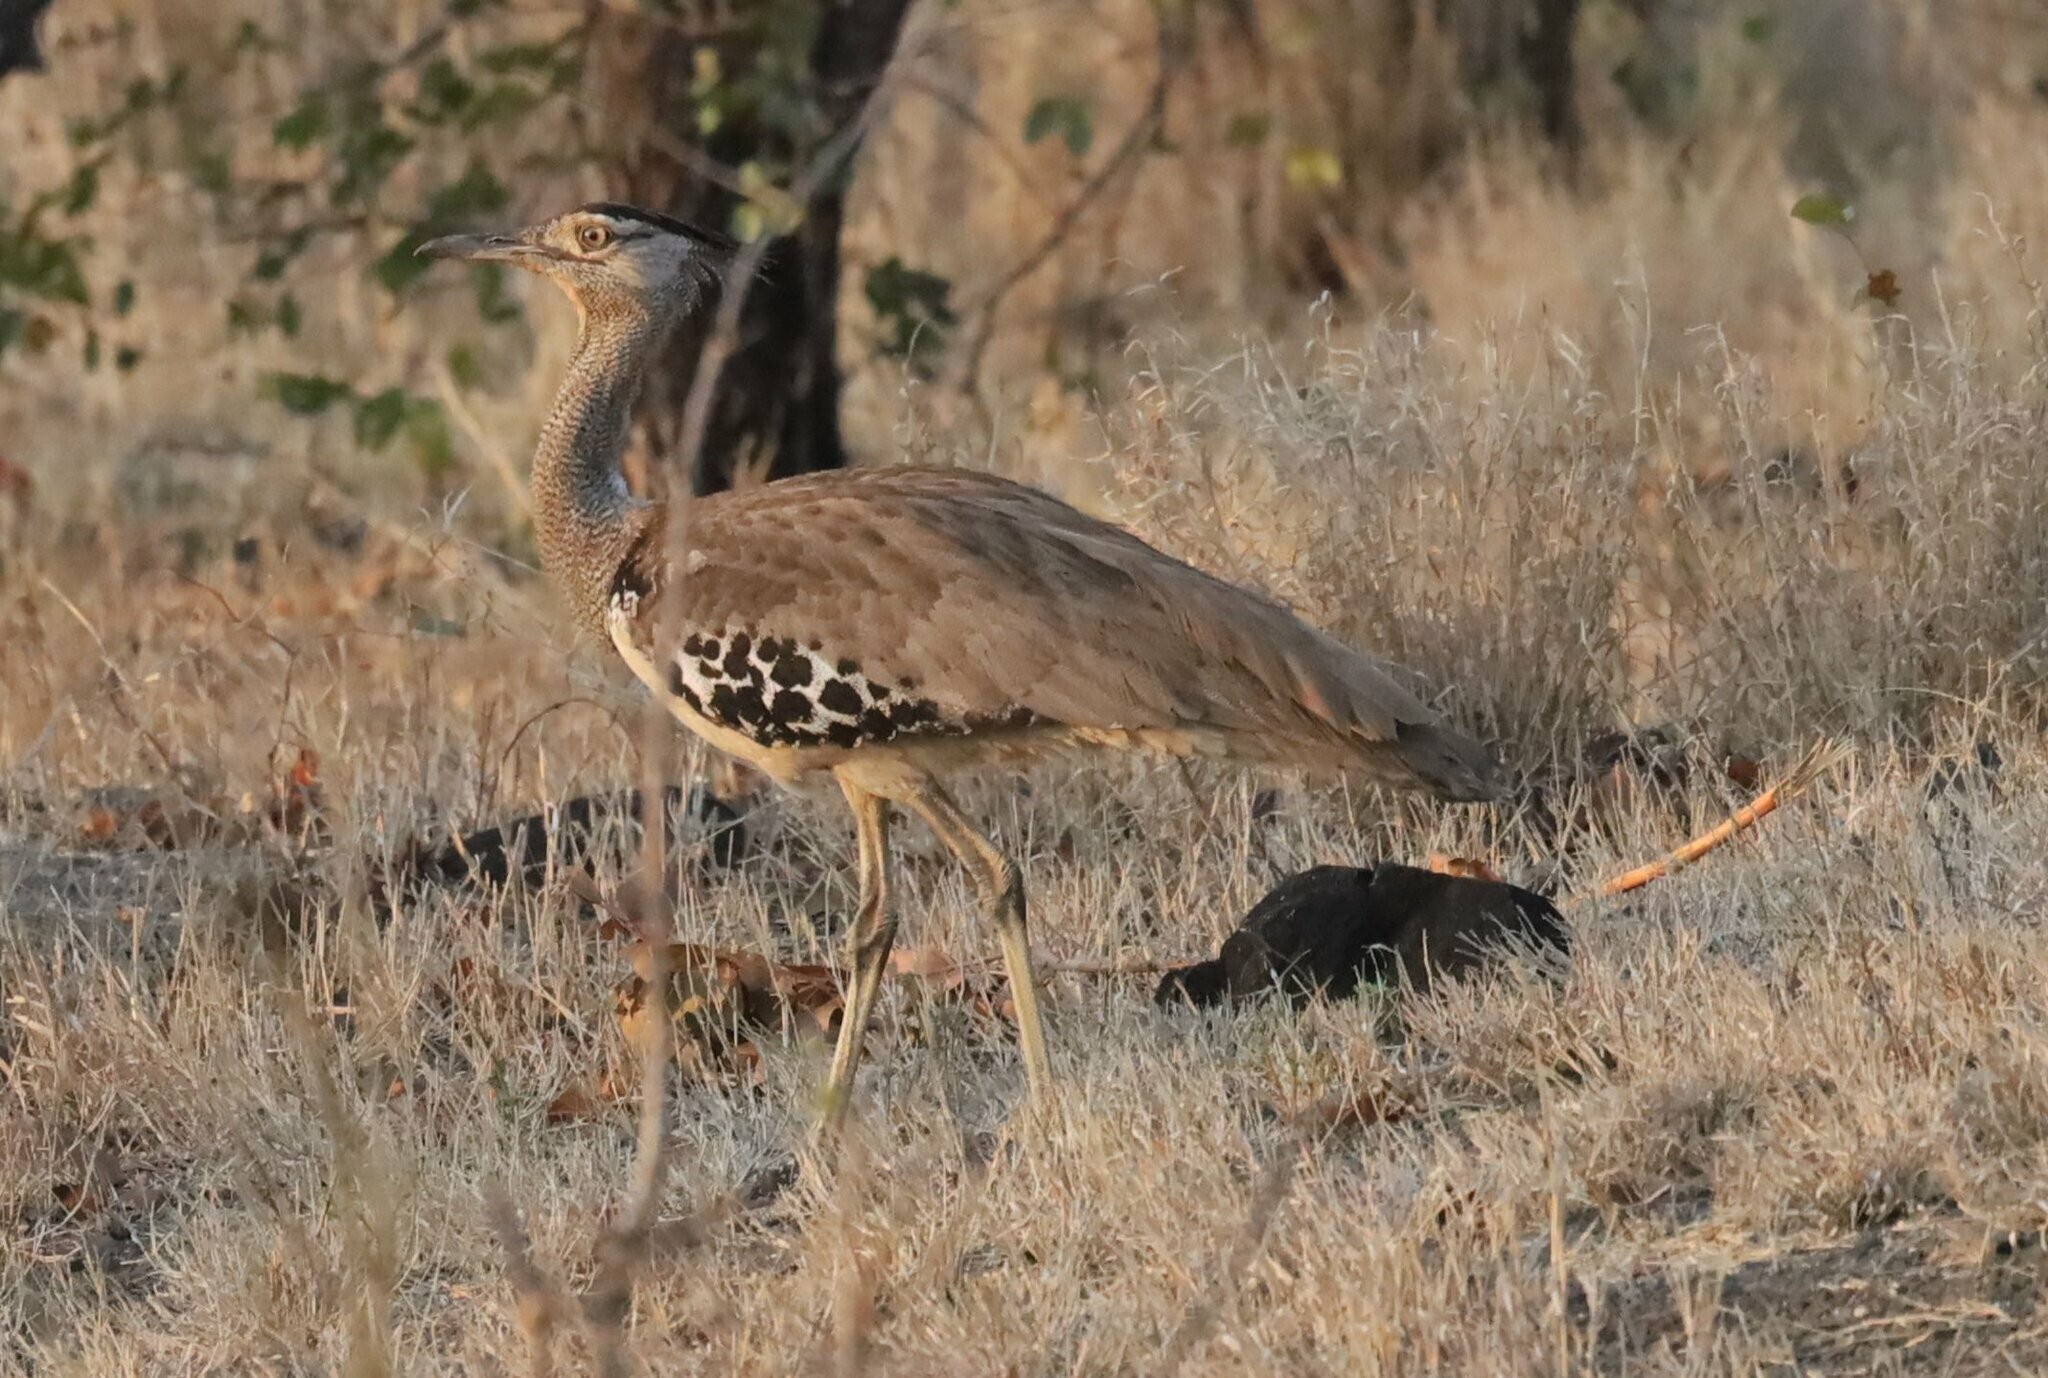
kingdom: Animalia
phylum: Chordata
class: Aves
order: Otidiformes
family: Otididae
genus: Ardeotis
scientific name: Ardeotis kori
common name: Kori bustard
